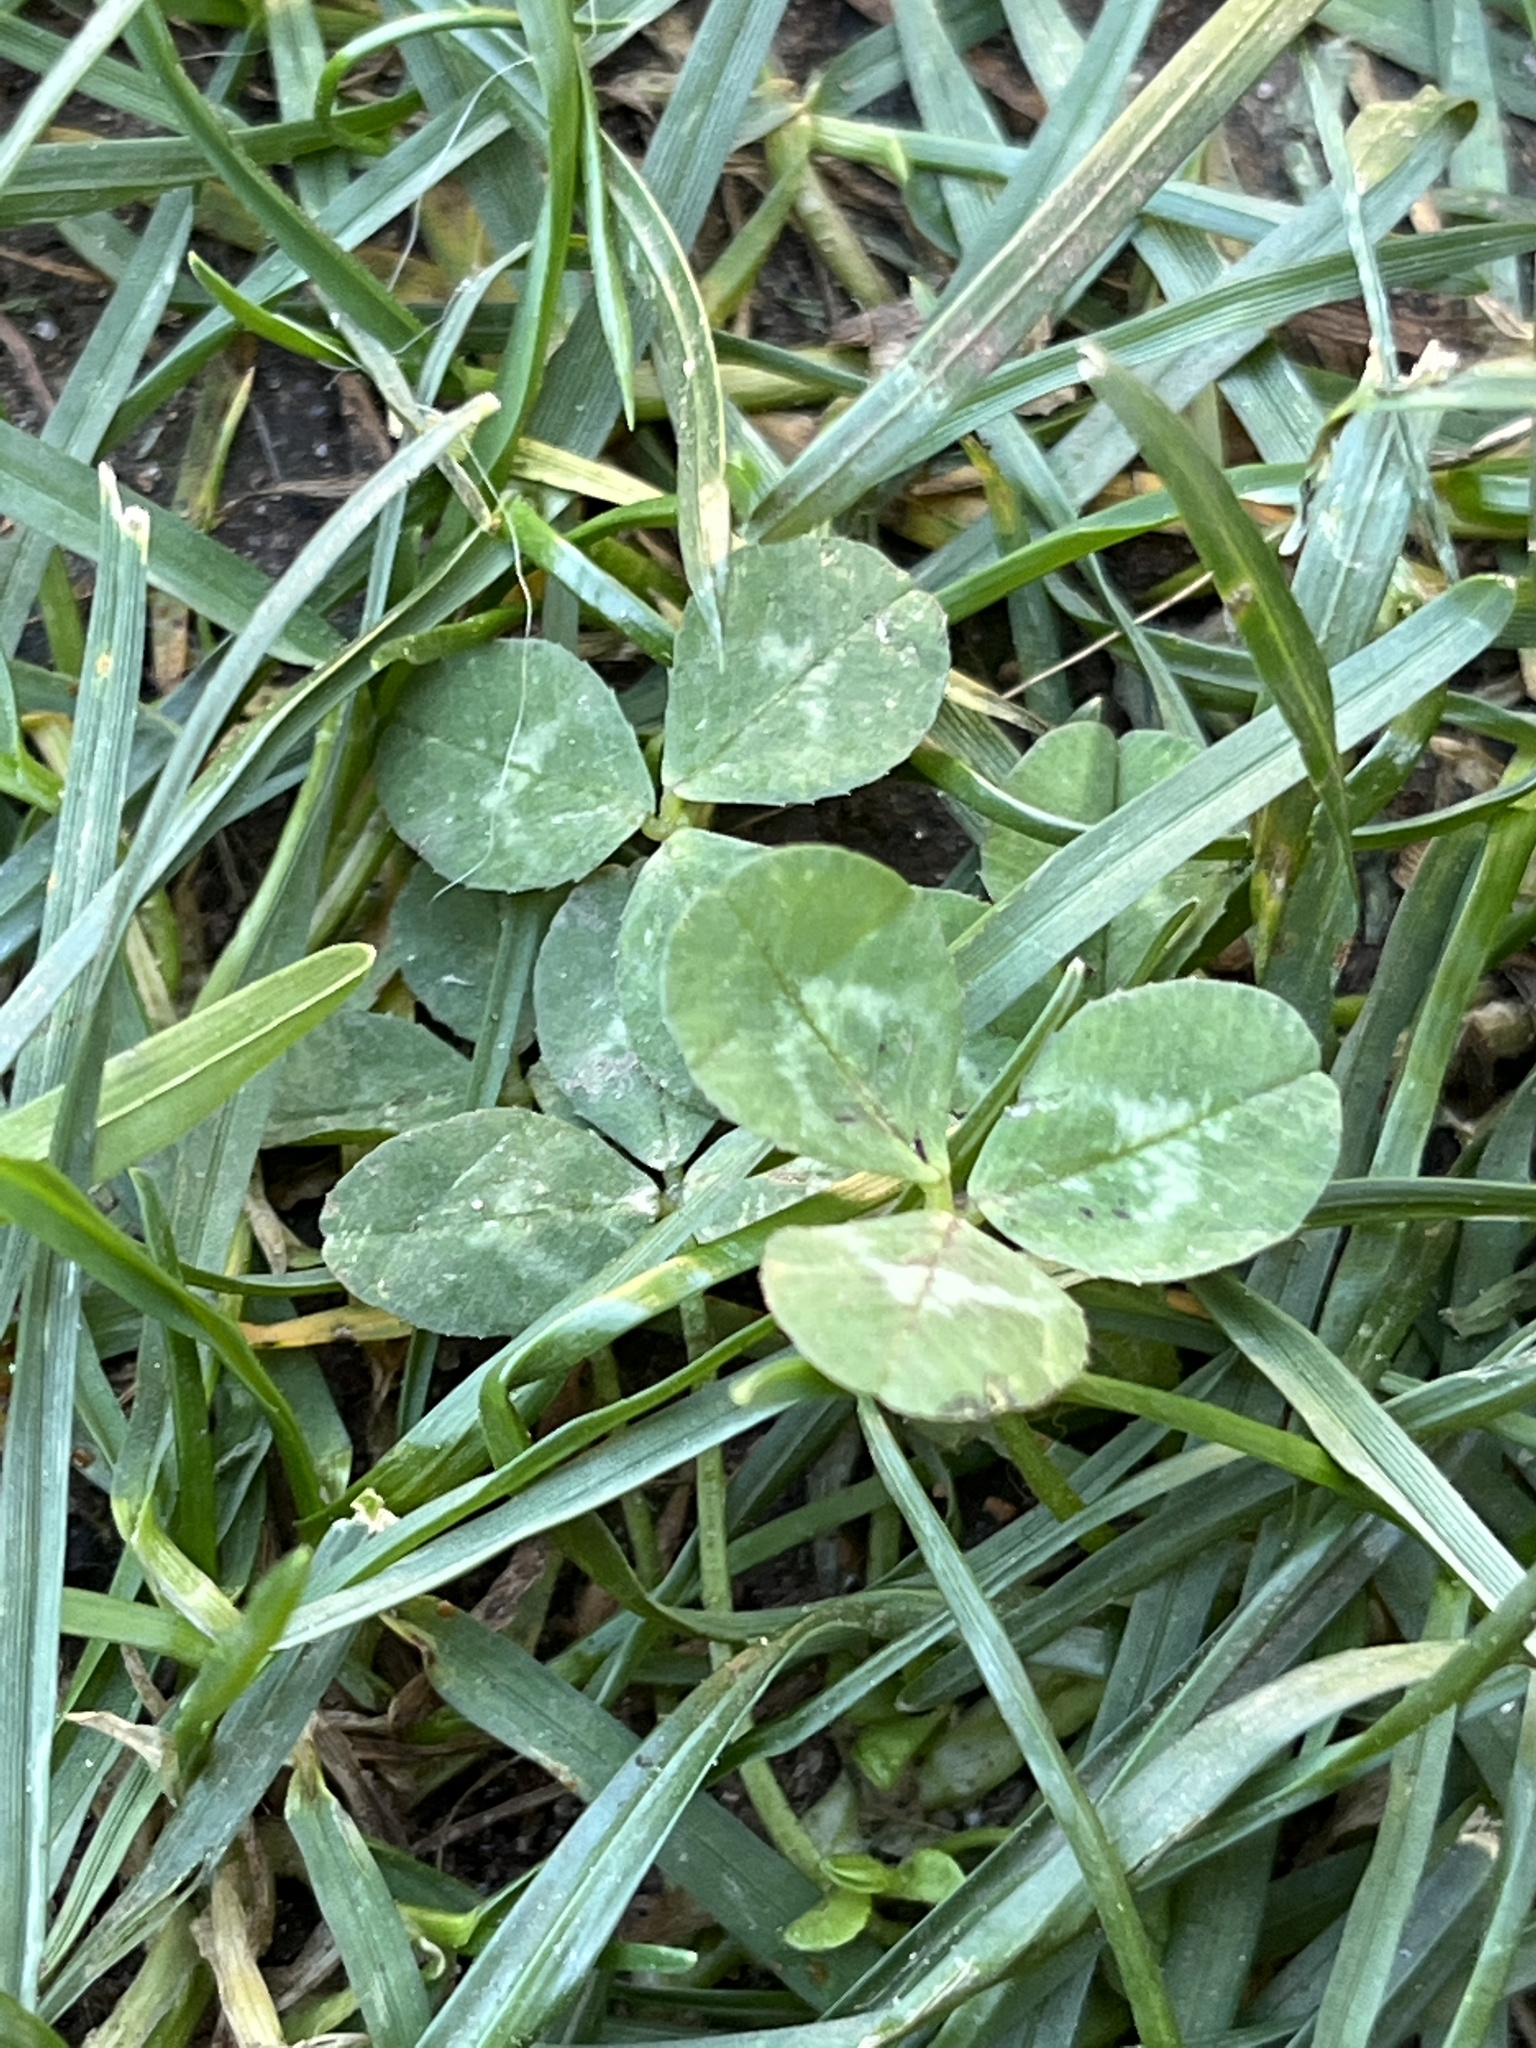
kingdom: Plantae
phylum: Tracheophyta
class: Magnoliopsida
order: Fabales
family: Fabaceae
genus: Trifolium
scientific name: Trifolium repens
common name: White clover
